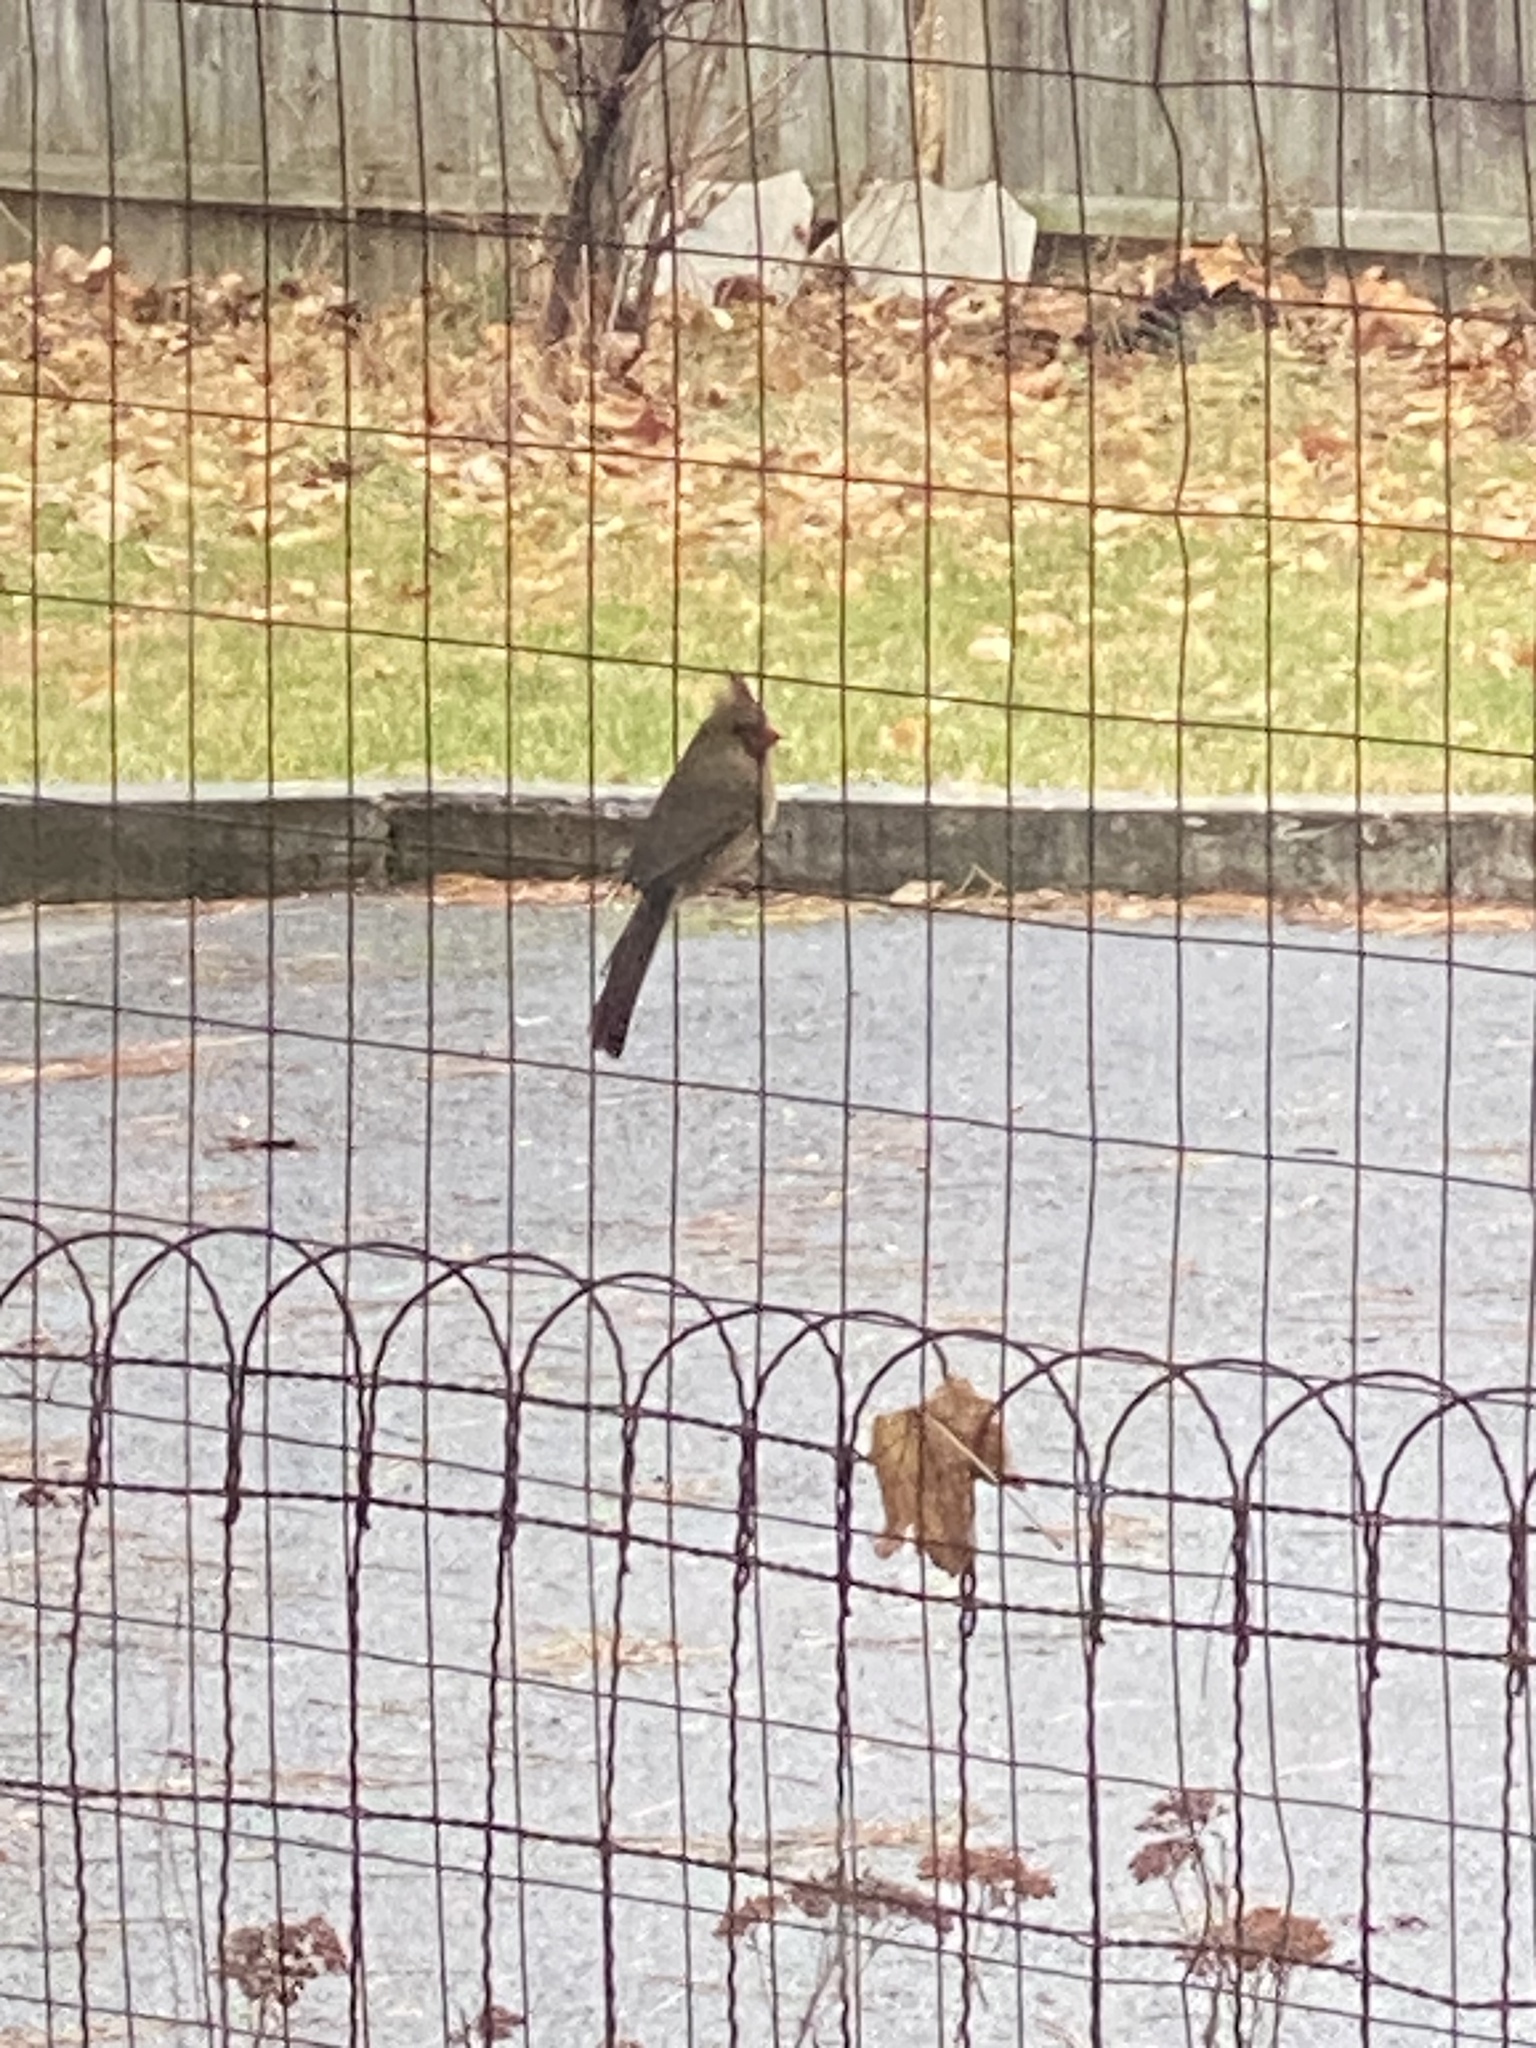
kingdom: Animalia
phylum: Chordata
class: Aves
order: Passeriformes
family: Cardinalidae
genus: Cardinalis
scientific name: Cardinalis cardinalis
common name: Northern cardinal
